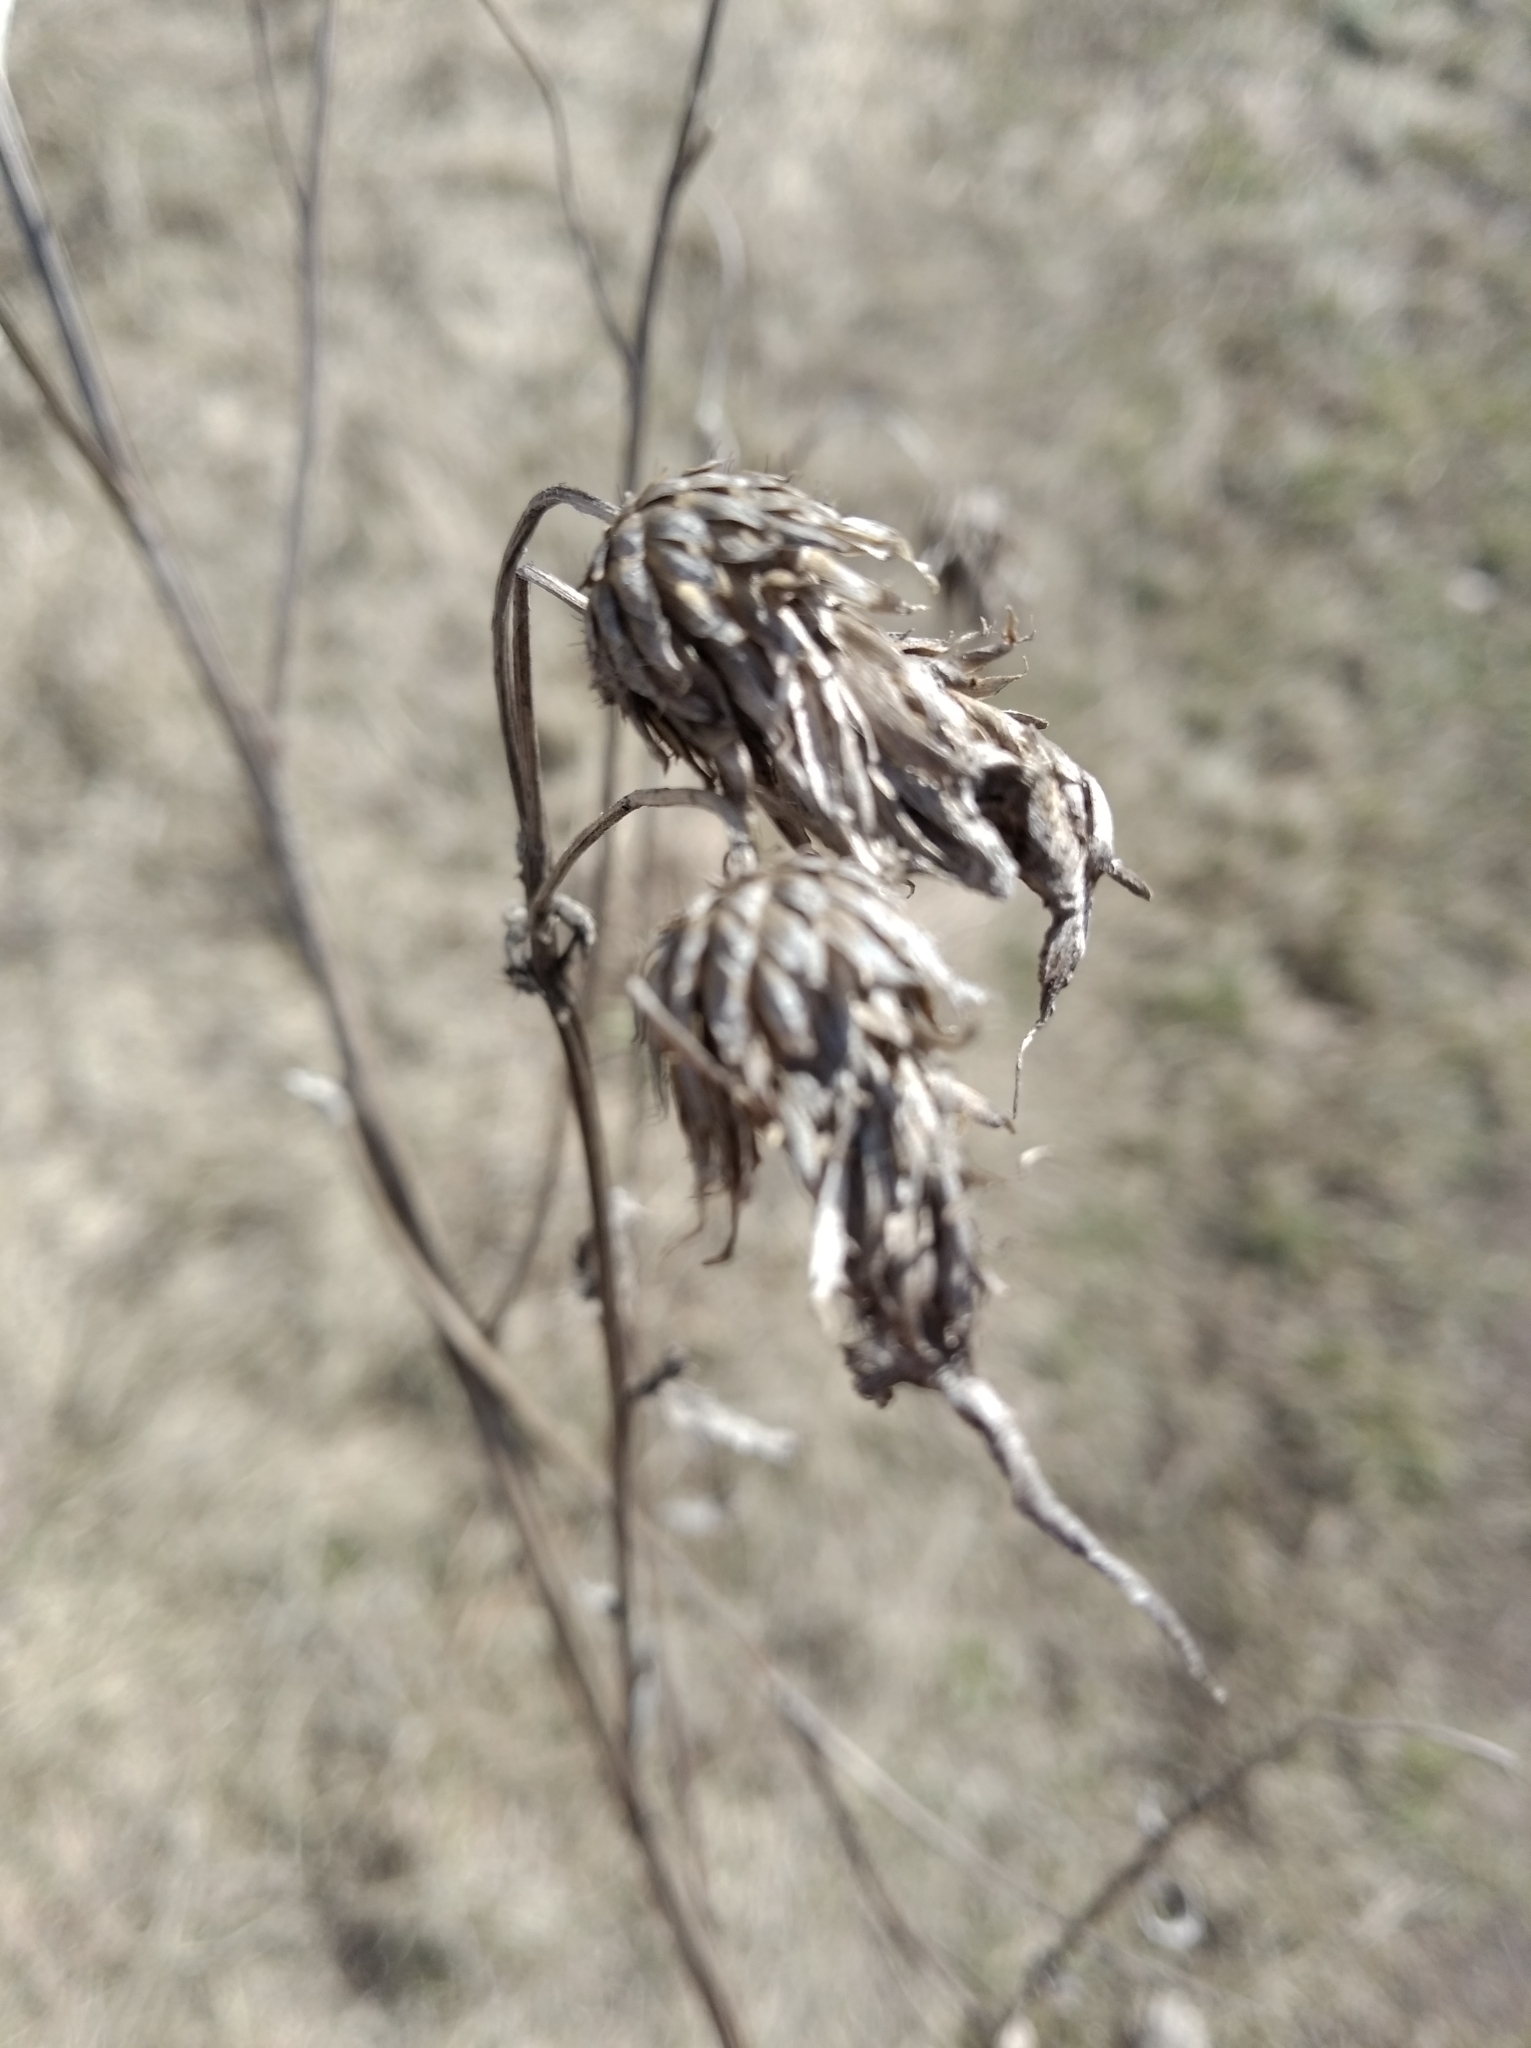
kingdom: Plantae
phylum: Tracheophyta
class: Magnoliopsida
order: Asterales
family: Asteraceae
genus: Cirsium
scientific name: Cirsium arvense
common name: Creeping thistle
